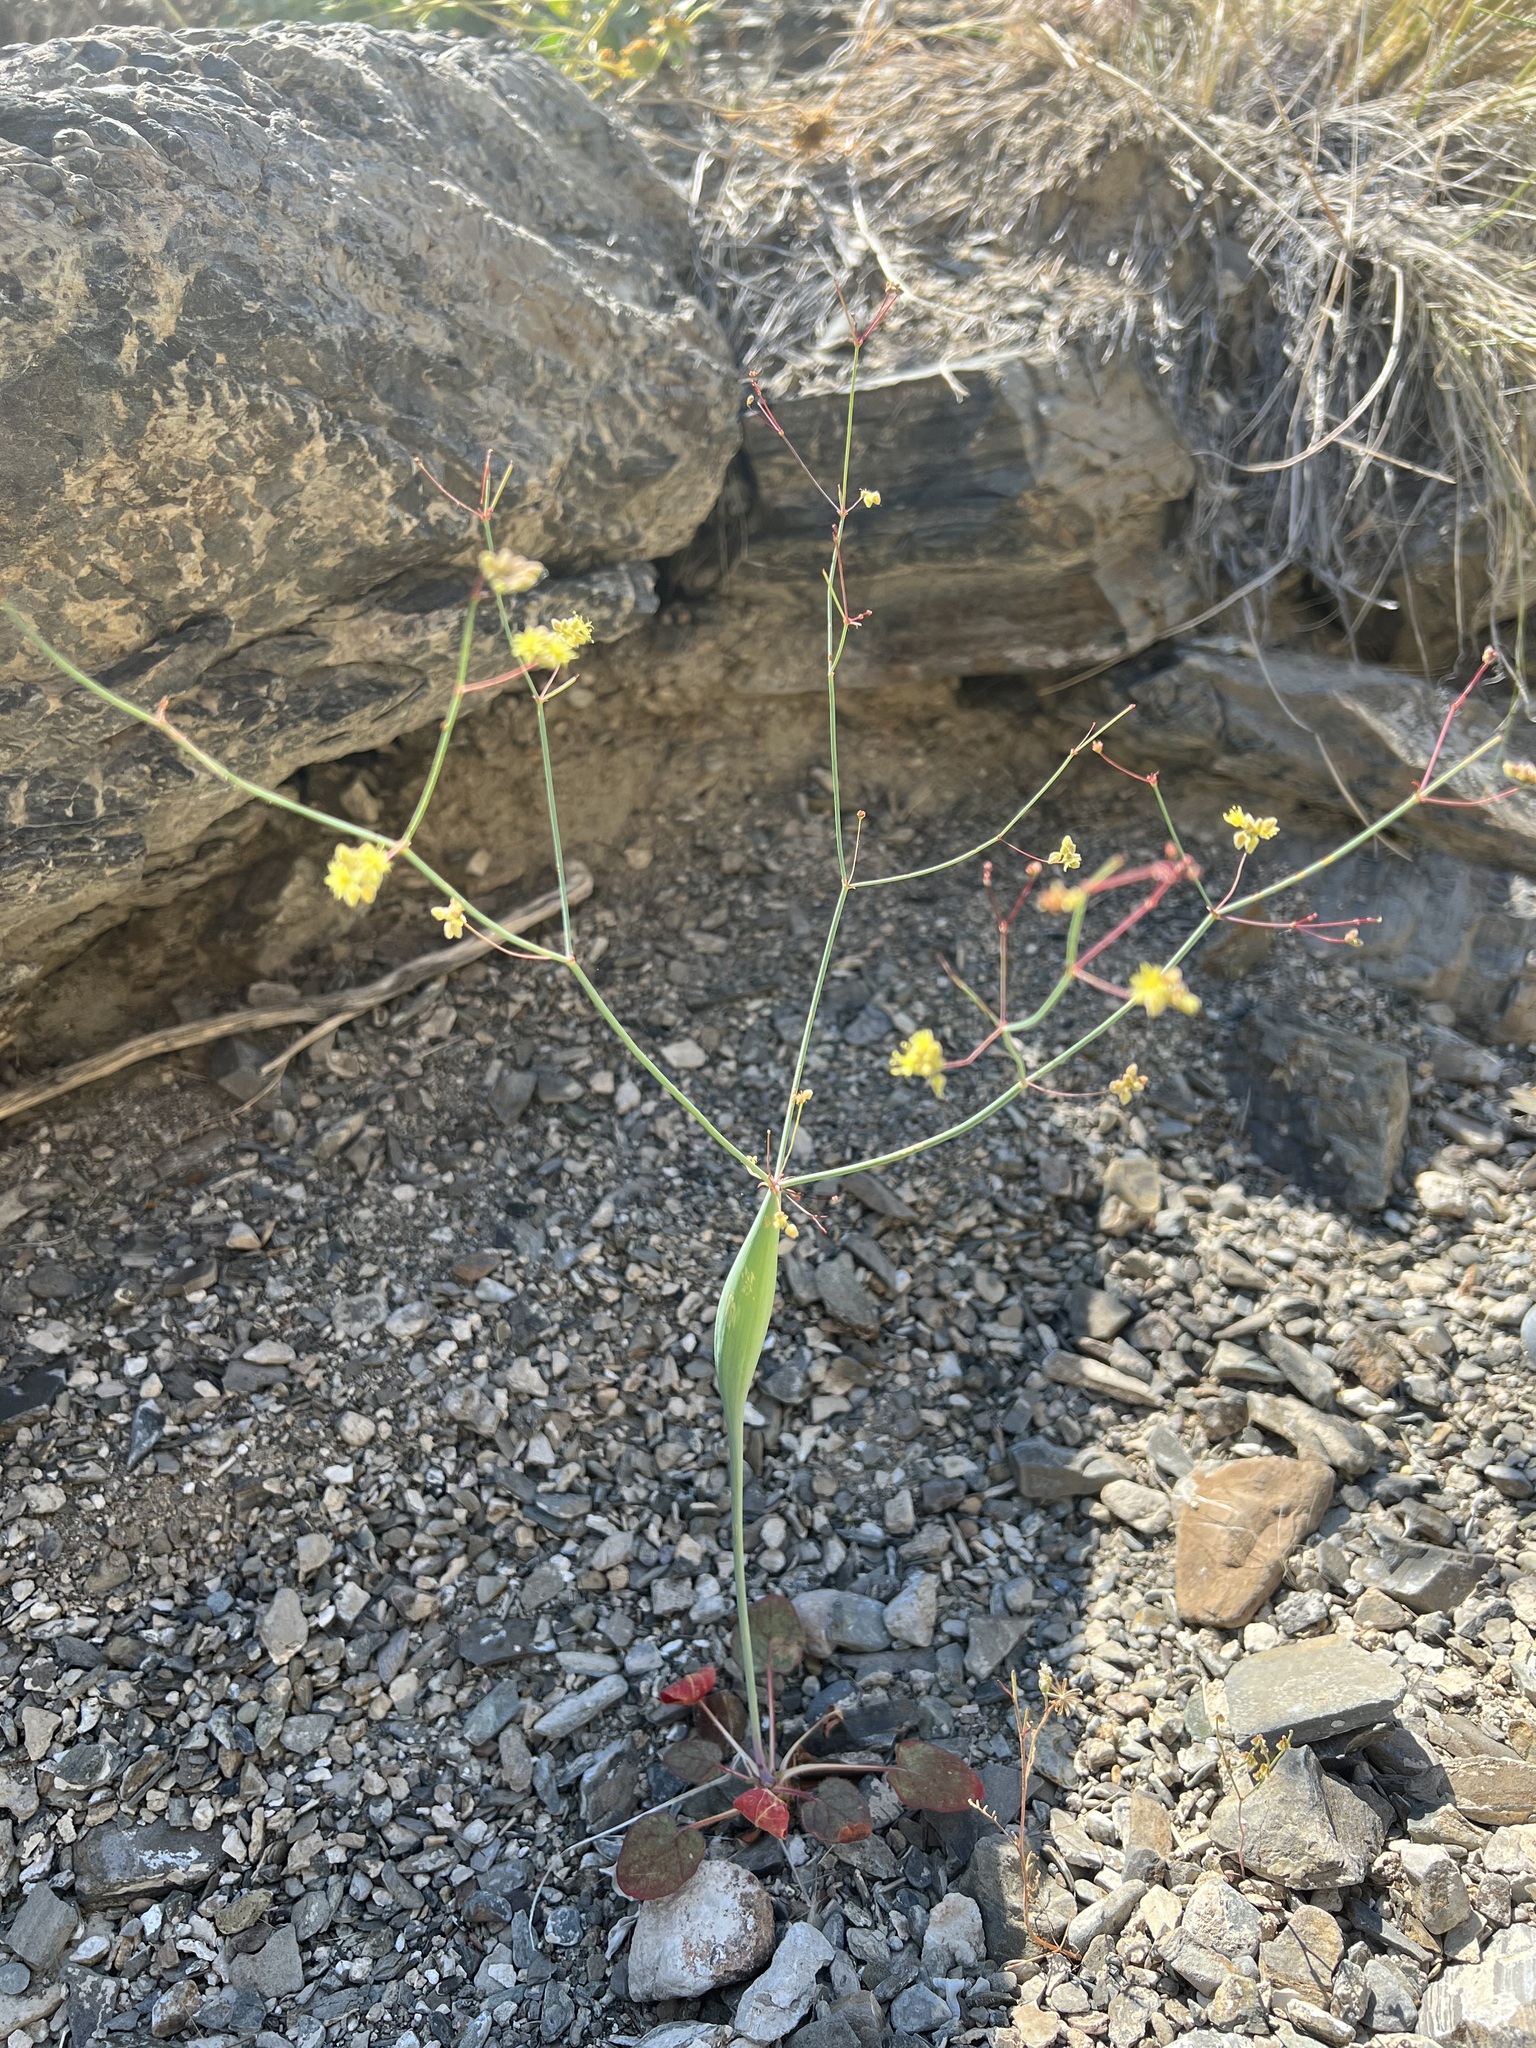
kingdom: Plantae
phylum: Tracheophyta
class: Magnoliopsida
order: Caryophyllales
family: Polygonaceae
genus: Eriogonum
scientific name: Eriogonum inflatum
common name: Desert trumpet
